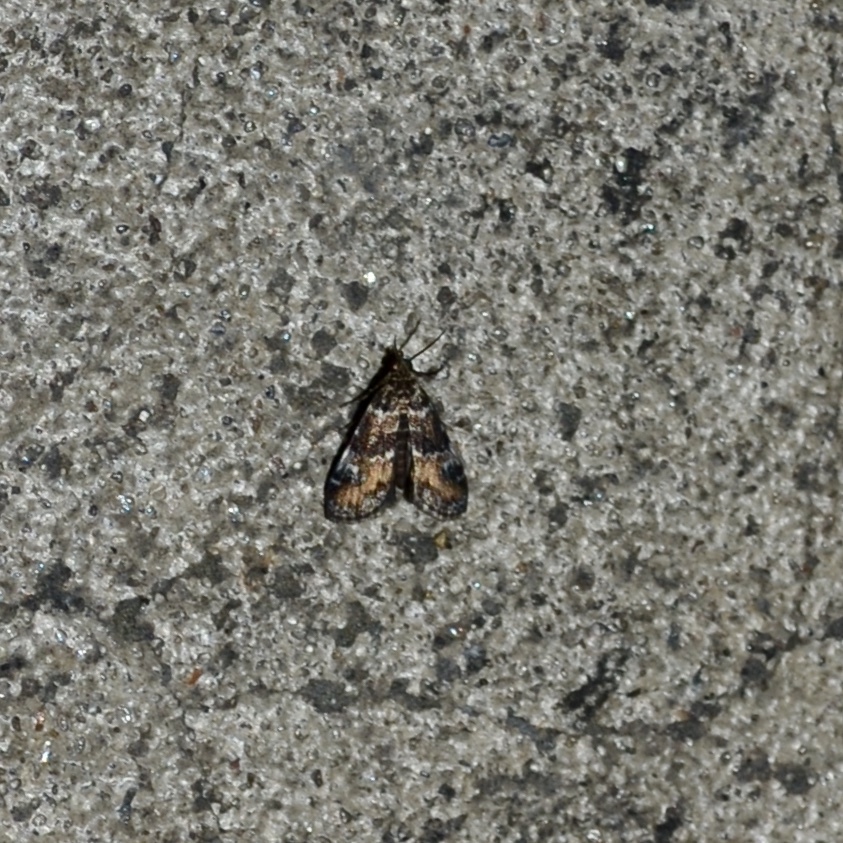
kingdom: Animalia
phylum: Arthropoda
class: Insecta
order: Lepidoptera
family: Crambidae
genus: Elophila
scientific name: Elophila obliteralis
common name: Waterlily leafcutter moth
